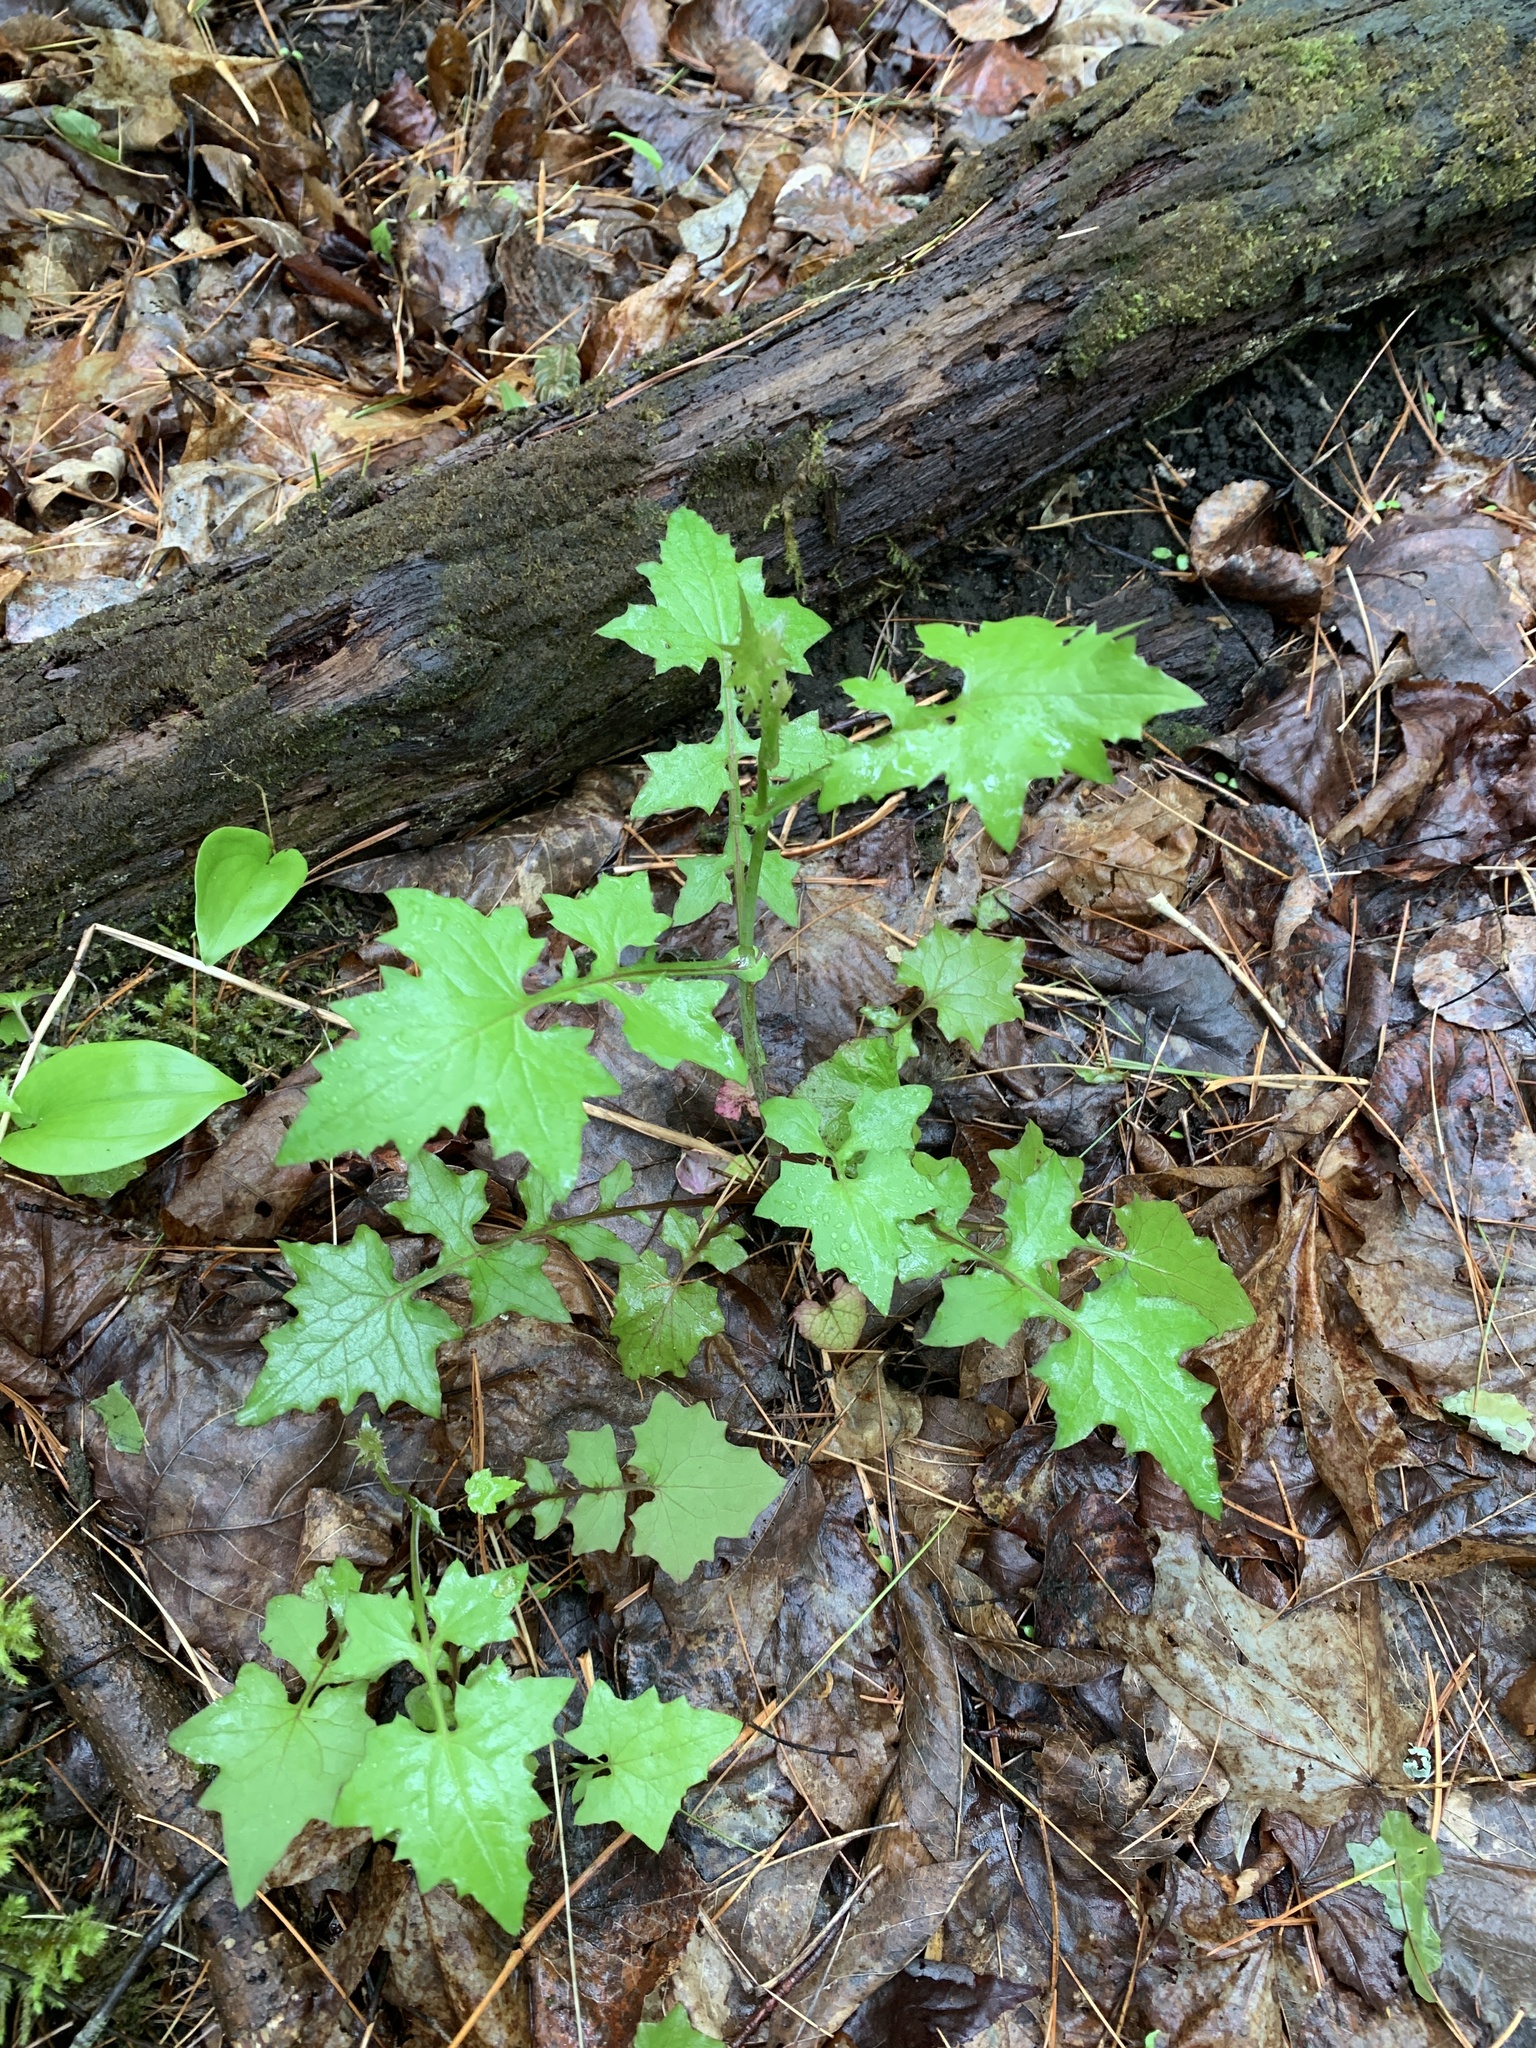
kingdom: Plantae
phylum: Tracheophyta
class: Magnoliopsida
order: Asterales
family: Asteraceae
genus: Mycelis
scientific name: Mycelis muralis
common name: Wall lettuce
